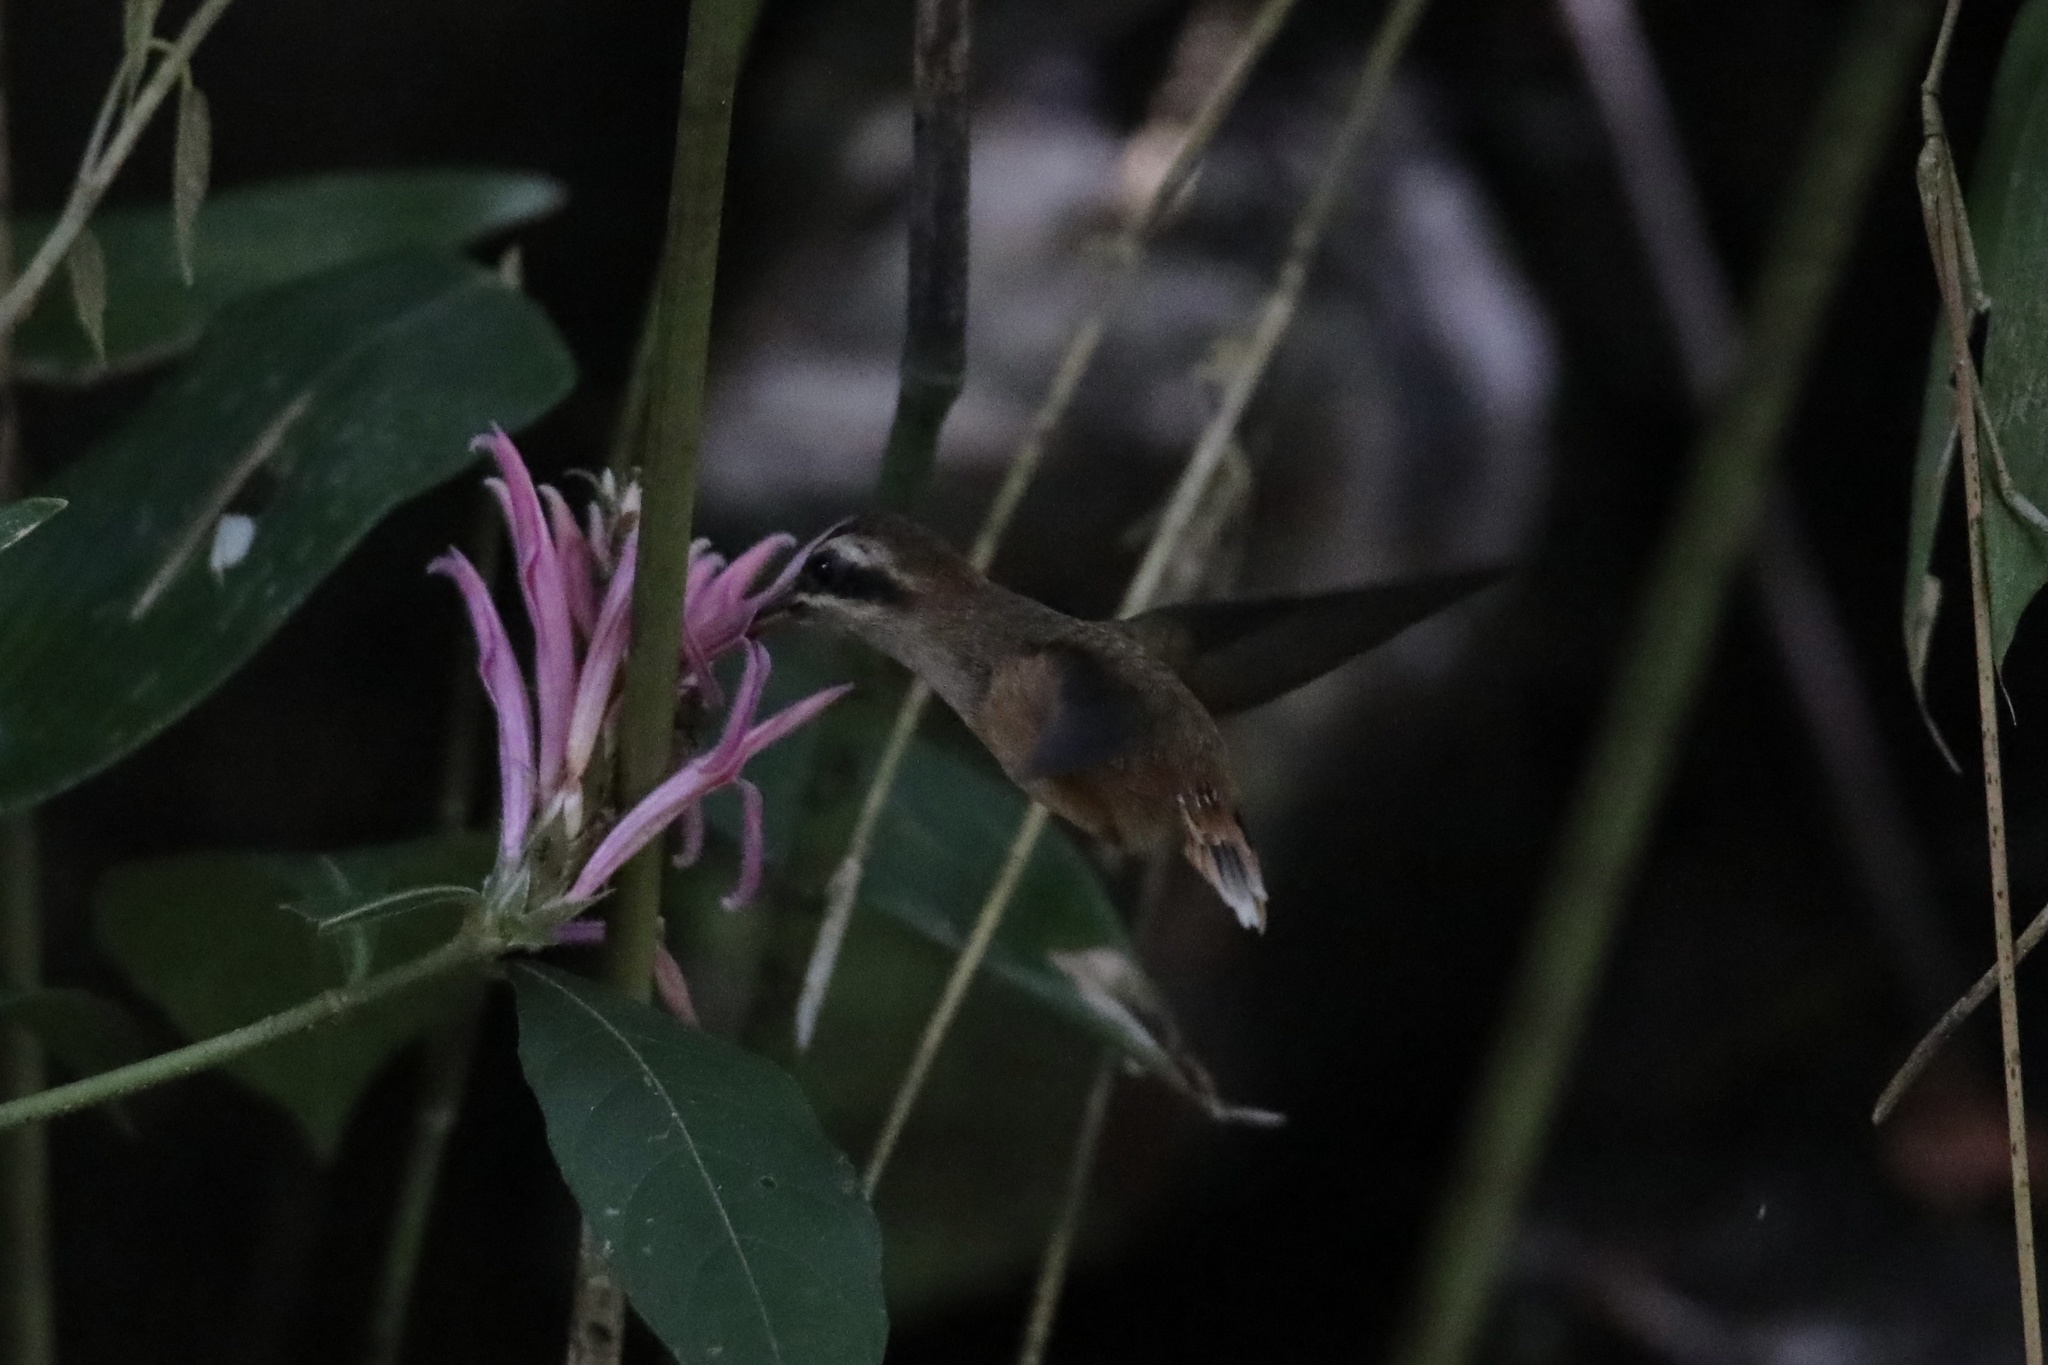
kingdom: Animalia
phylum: Chordata
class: Aves
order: Apodiformes
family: Trochilidae
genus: Phaethornis
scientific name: Phaethornis striigularis
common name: Stripe-throated hermit
